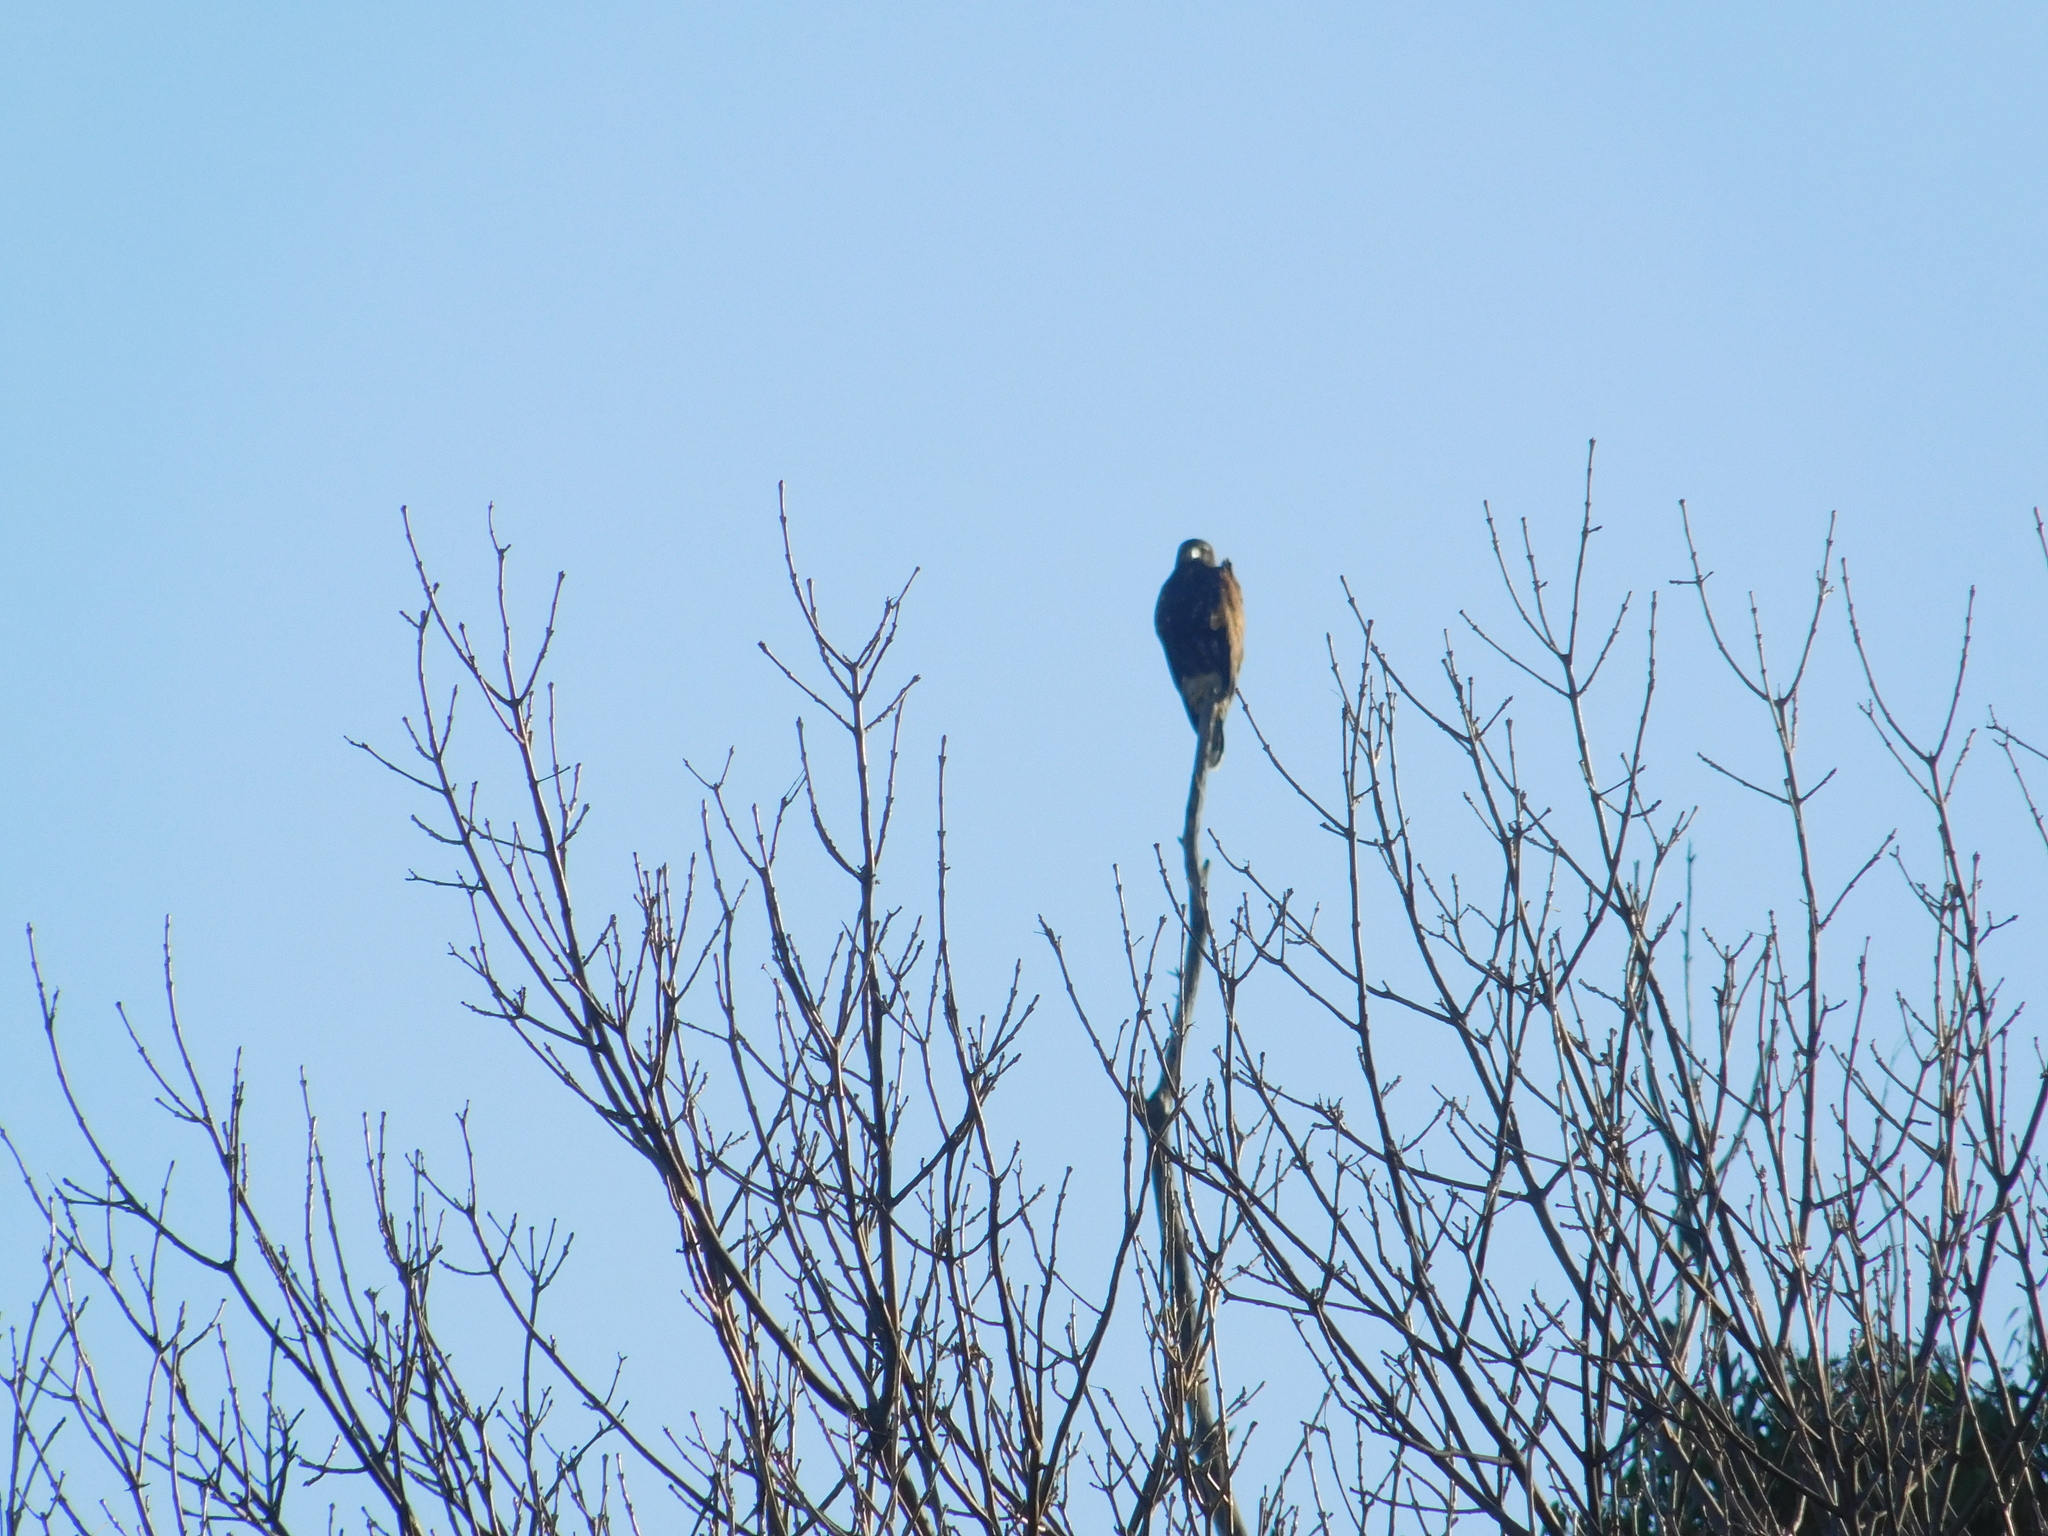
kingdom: Animalia
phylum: Chordata
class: Aves
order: Accipitriformes
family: Accipitridae
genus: Parabuteo
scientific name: Parabuteo unicinctus
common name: Harris's hawk
